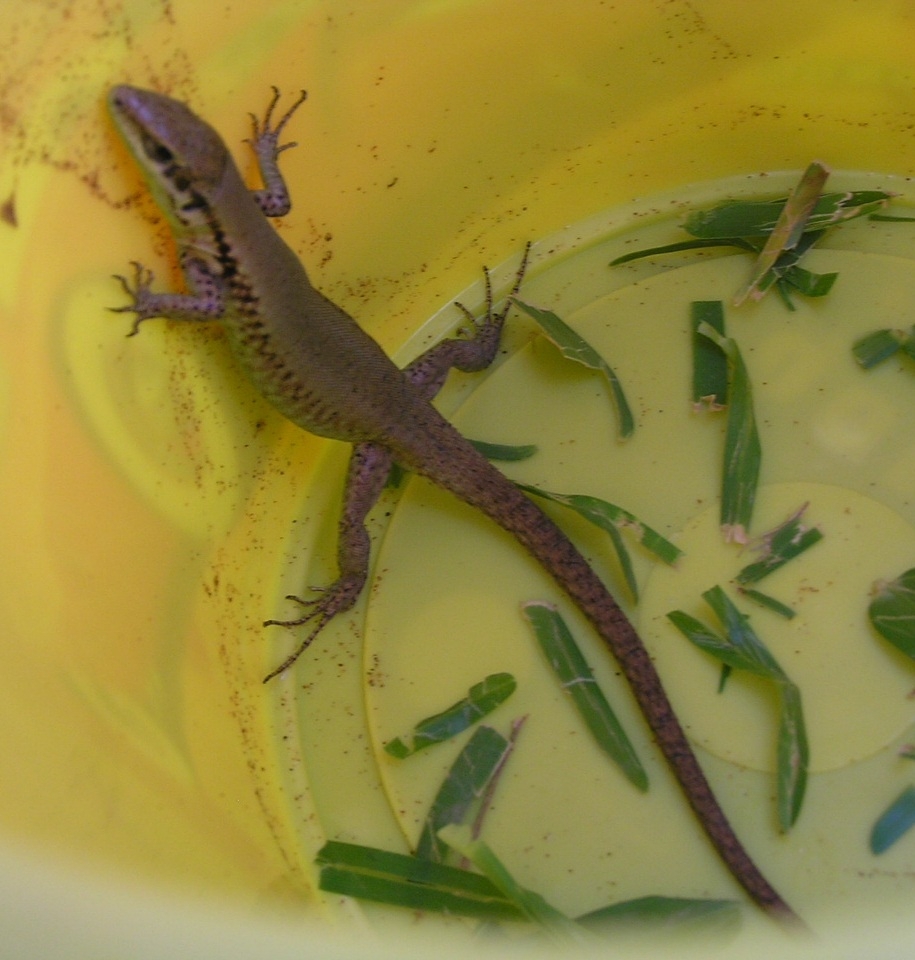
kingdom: Animalia
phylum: Chordata
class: Squamata
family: Lacertidae
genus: Phoenicolacerta
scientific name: Phoenicolacerta laevis
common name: Lebanon lizard
